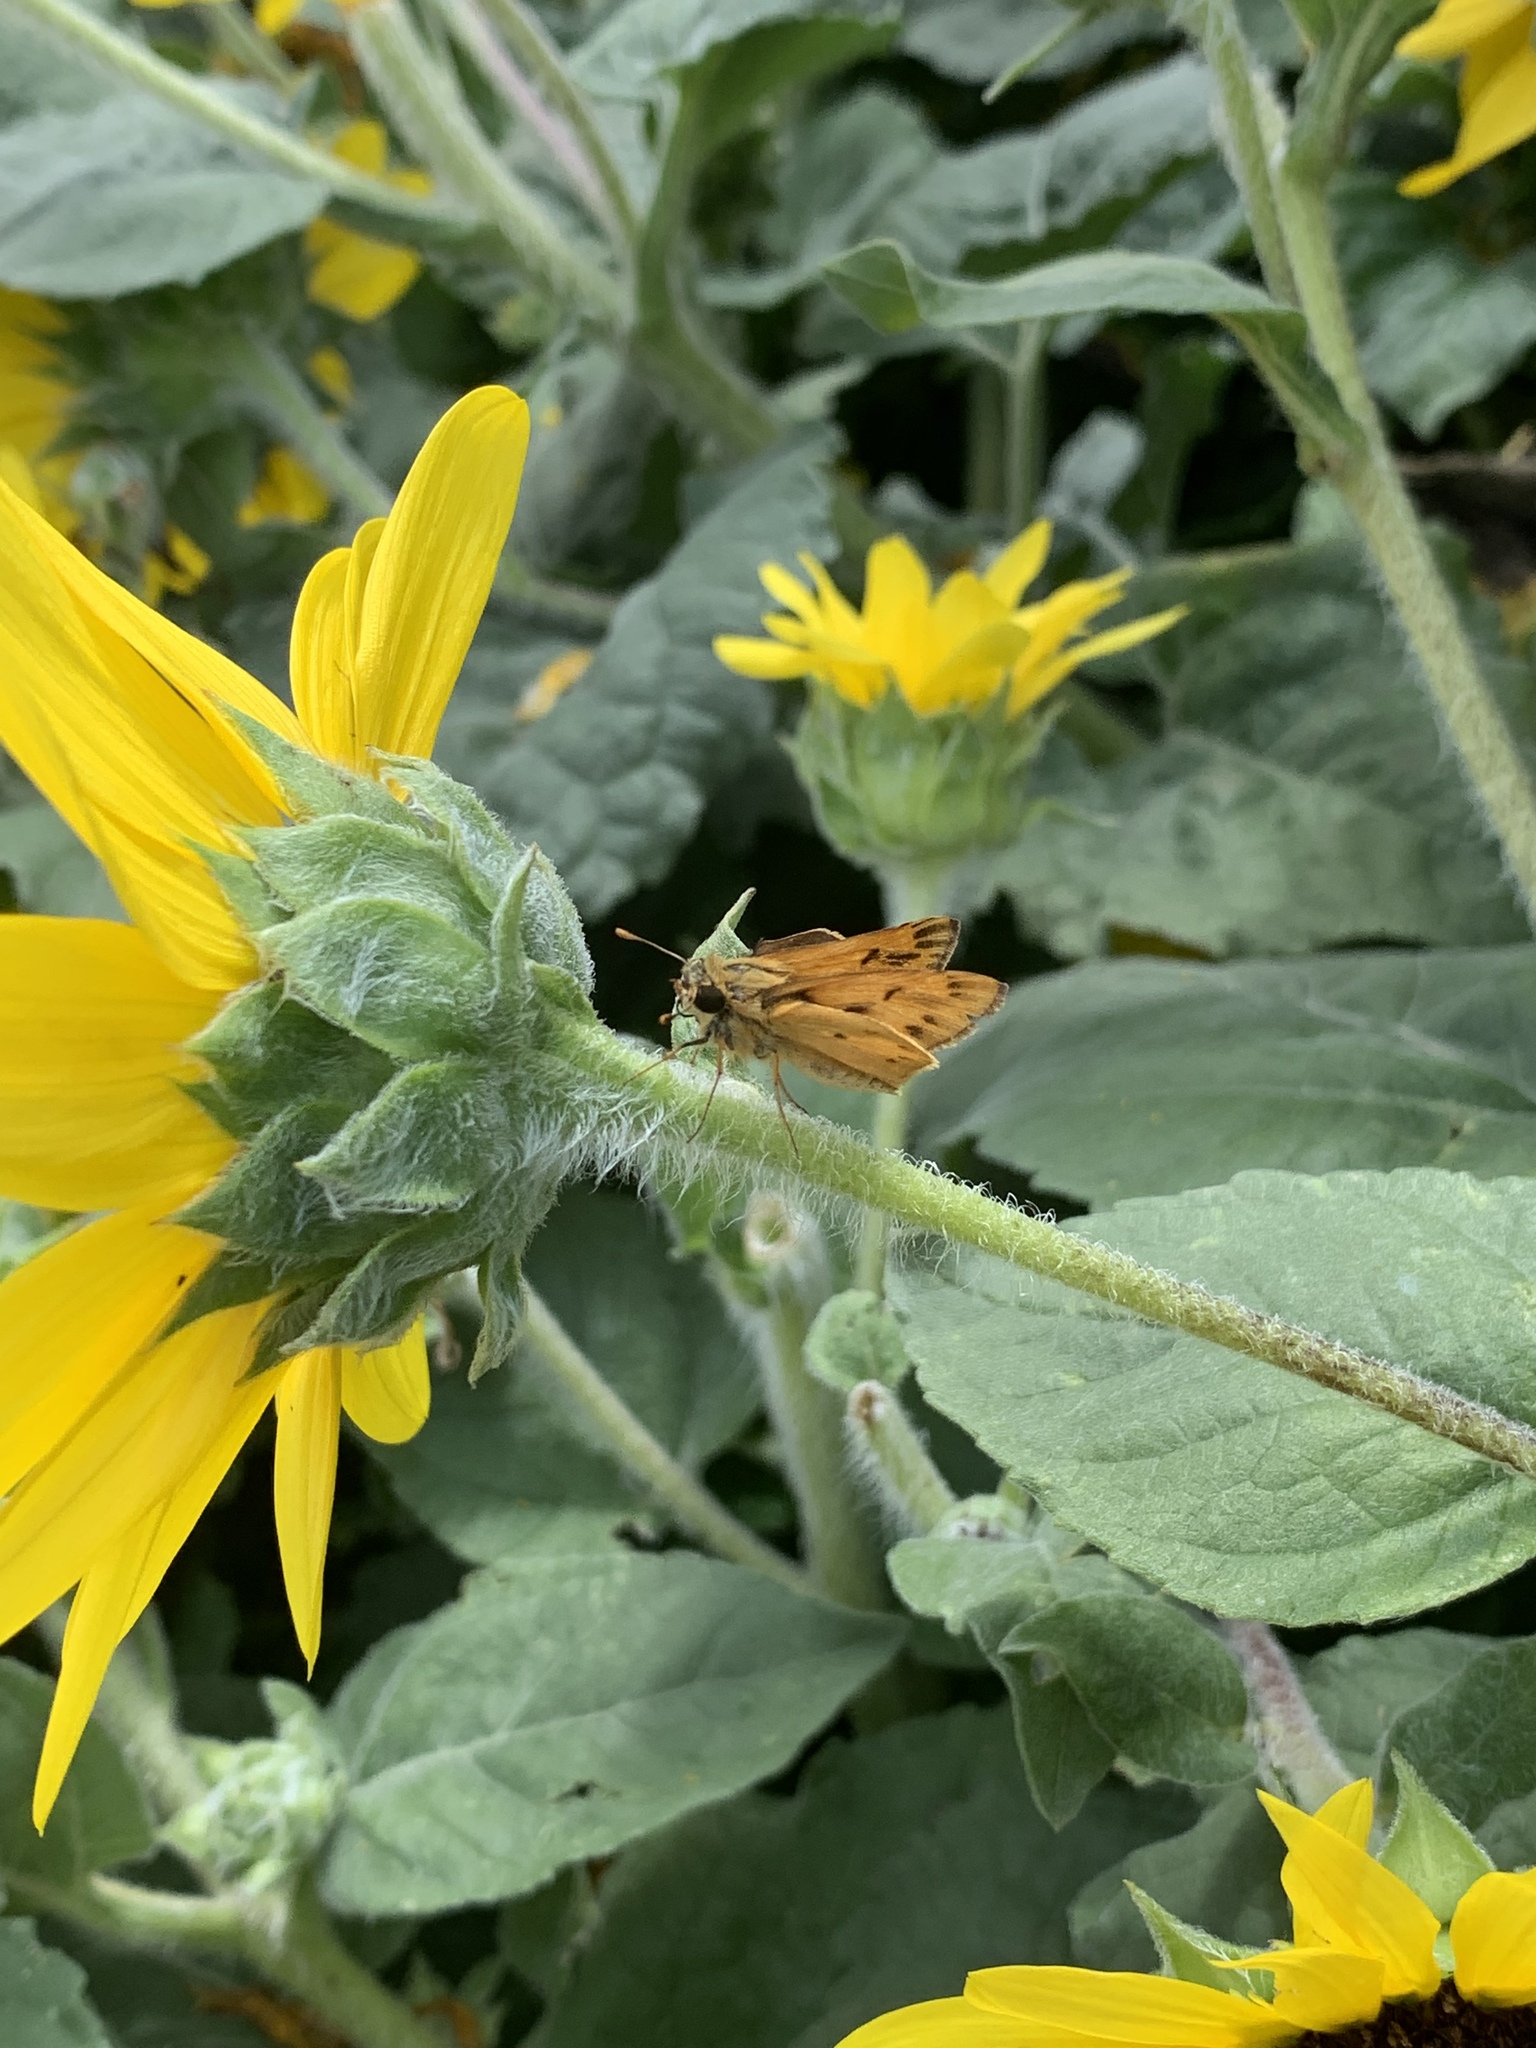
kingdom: Animalia
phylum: Arthropoda
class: Insecta
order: Lepidoptera
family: Hesperiidae
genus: Hylephila
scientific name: Hylephila phyleus
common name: Fiery skipper
